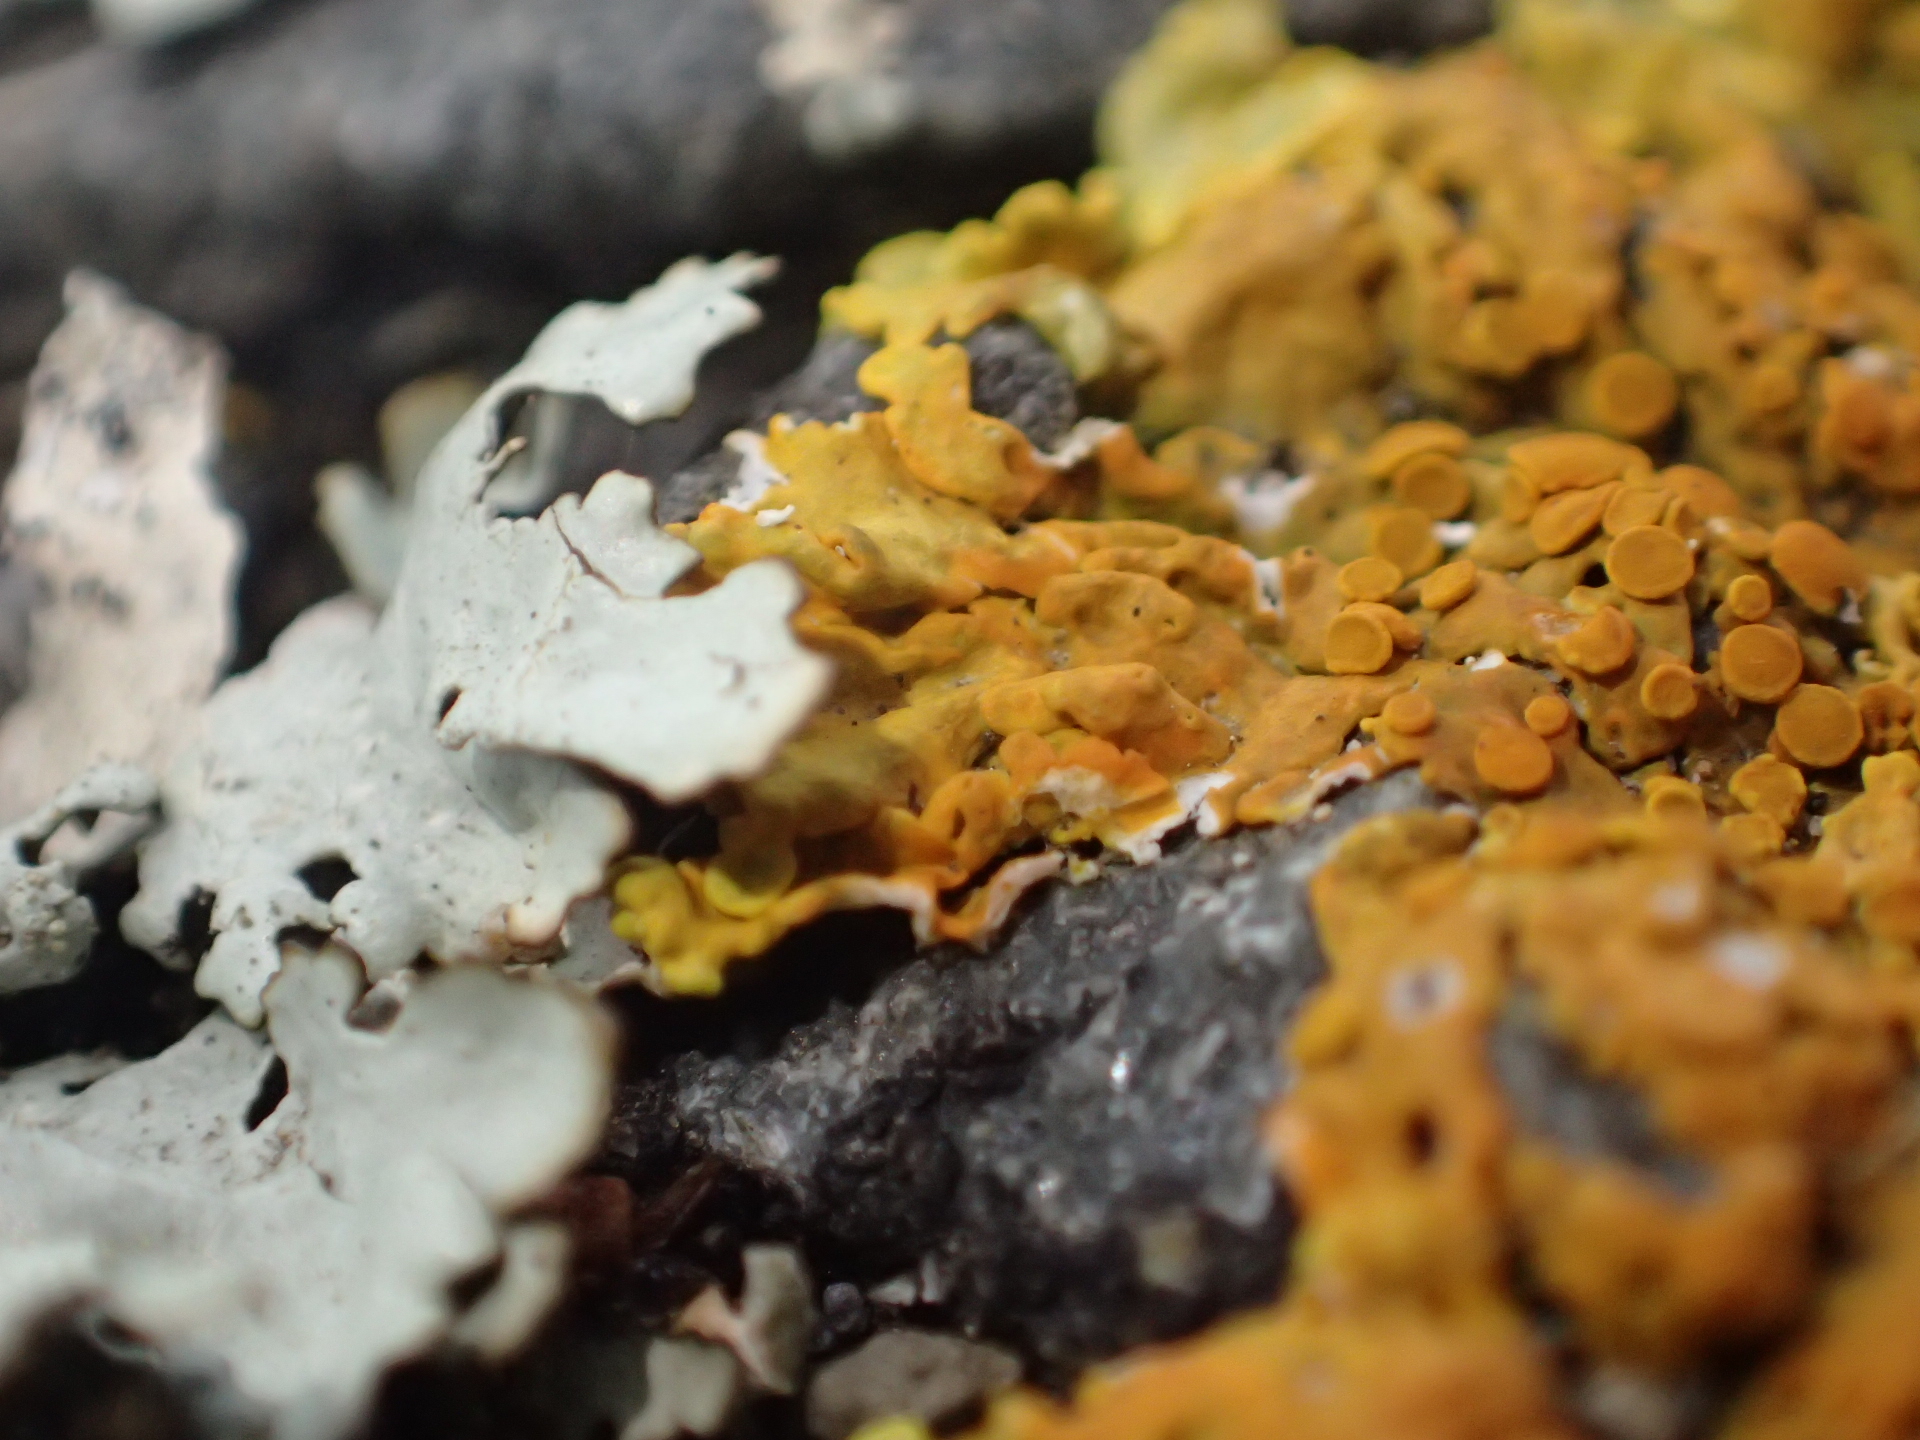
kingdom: Fungi
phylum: Ascomycota
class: Lecanoromycetes
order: Teloschistales
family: Teloschistaceae
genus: Xanthoria
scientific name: Xanthoria parietina
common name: Common orange lichen
